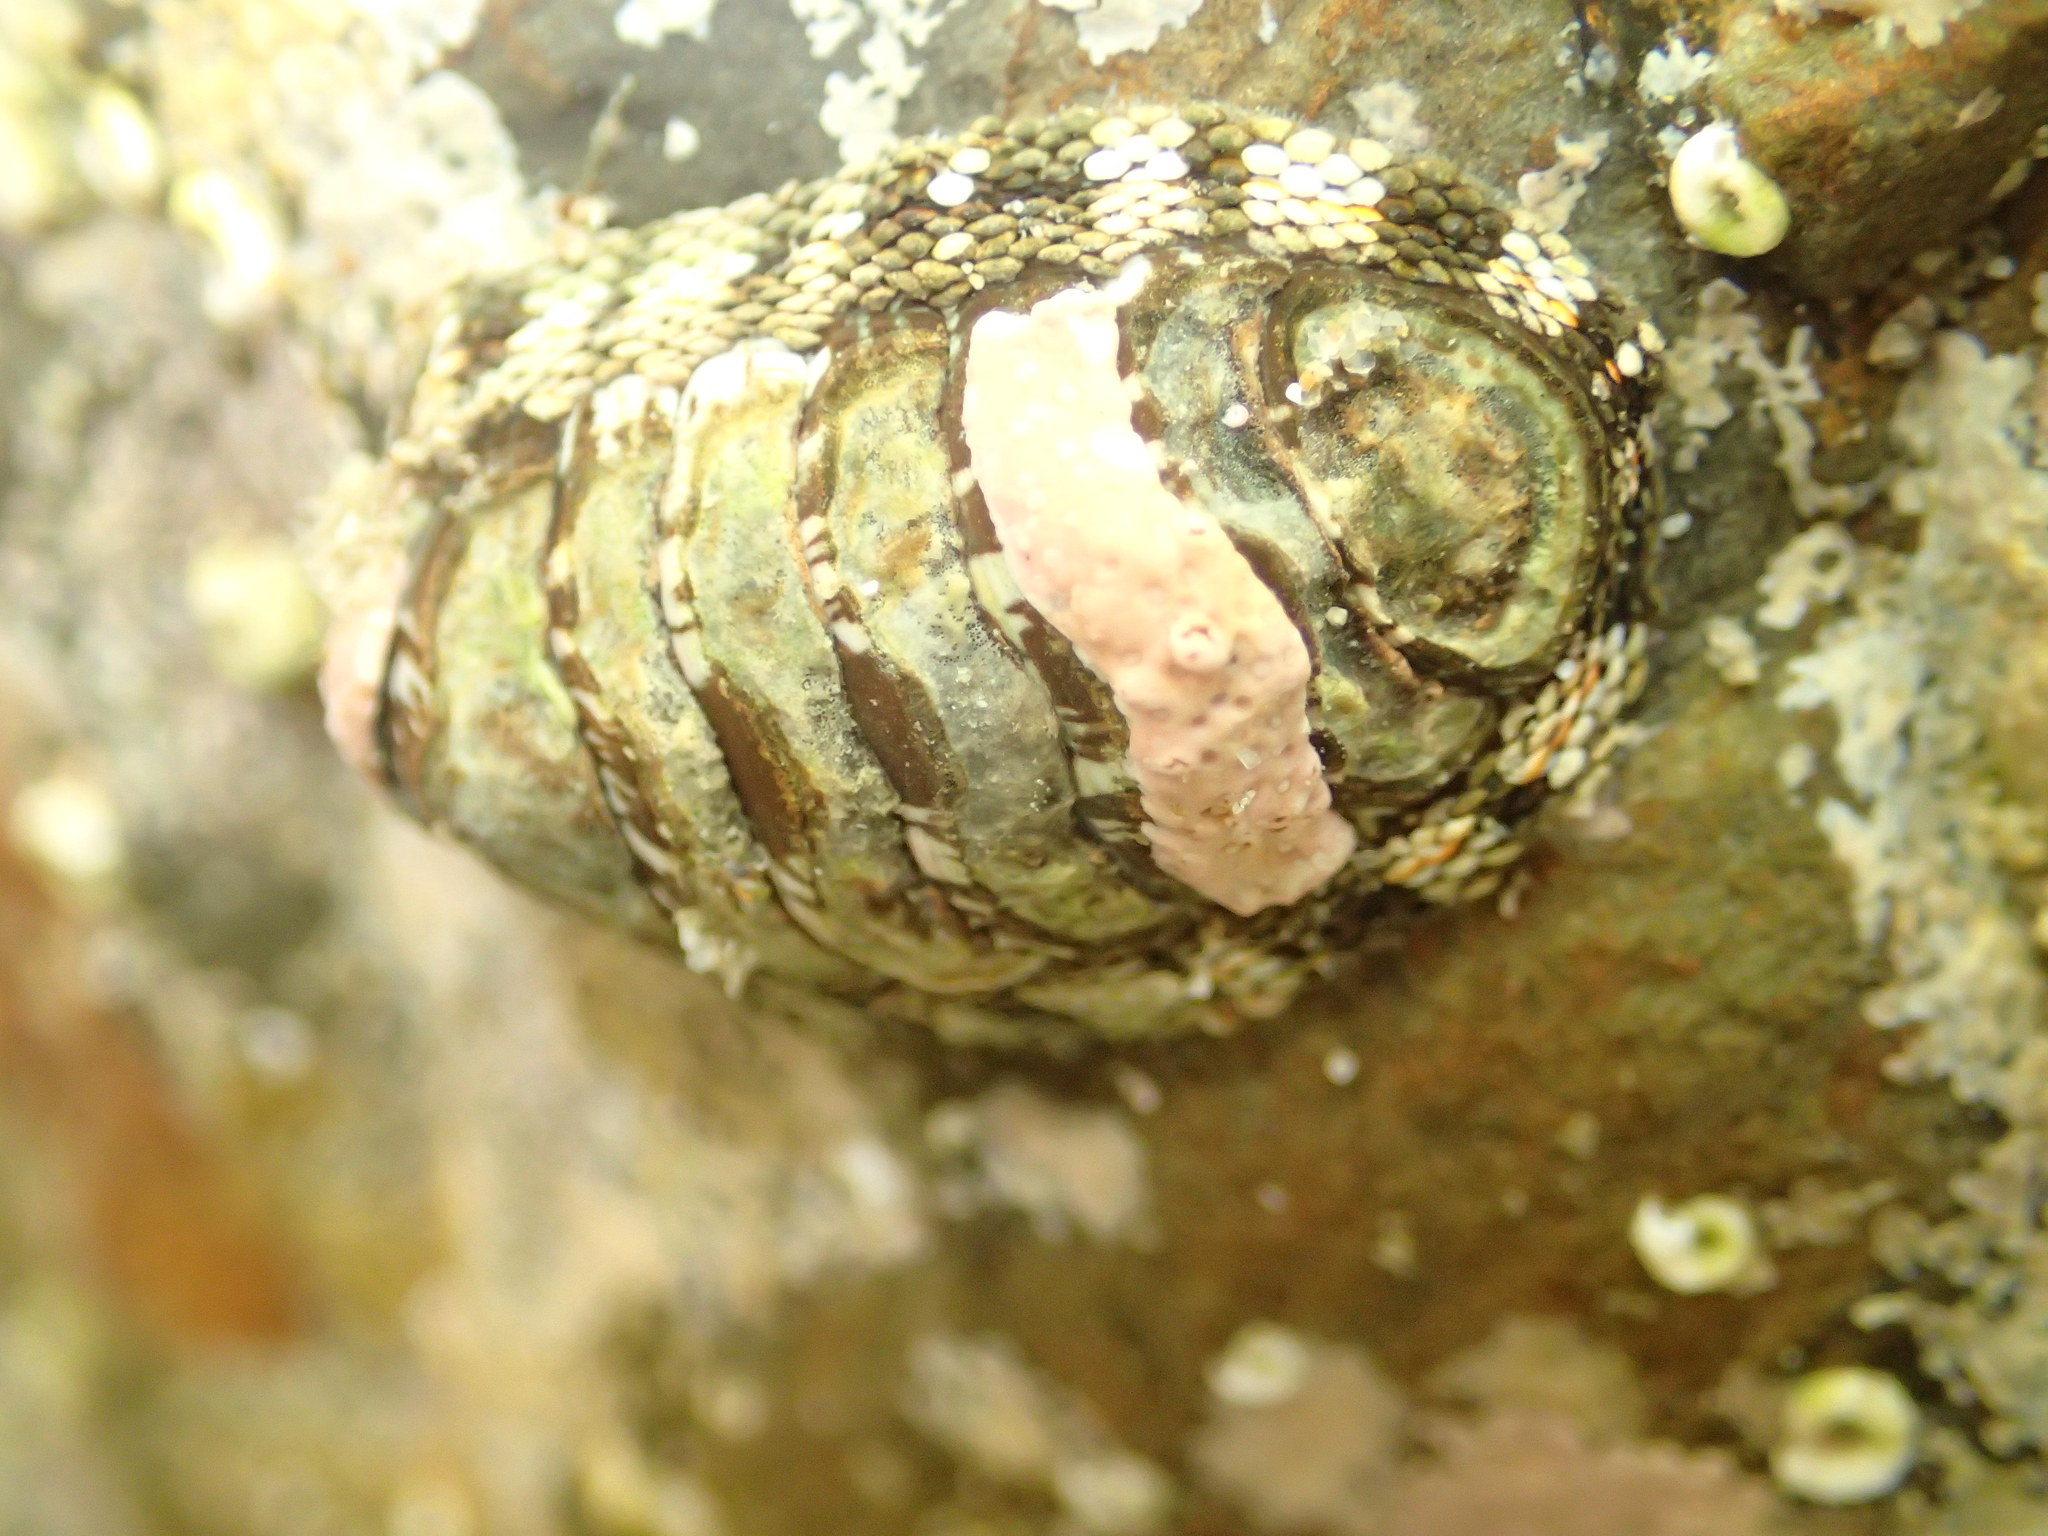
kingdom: Animalia
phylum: Mollusca
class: Polyplacophora
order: Chitonida
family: Chitonidae
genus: Sypharochiton
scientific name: Sypharochiton pelliserpentis
